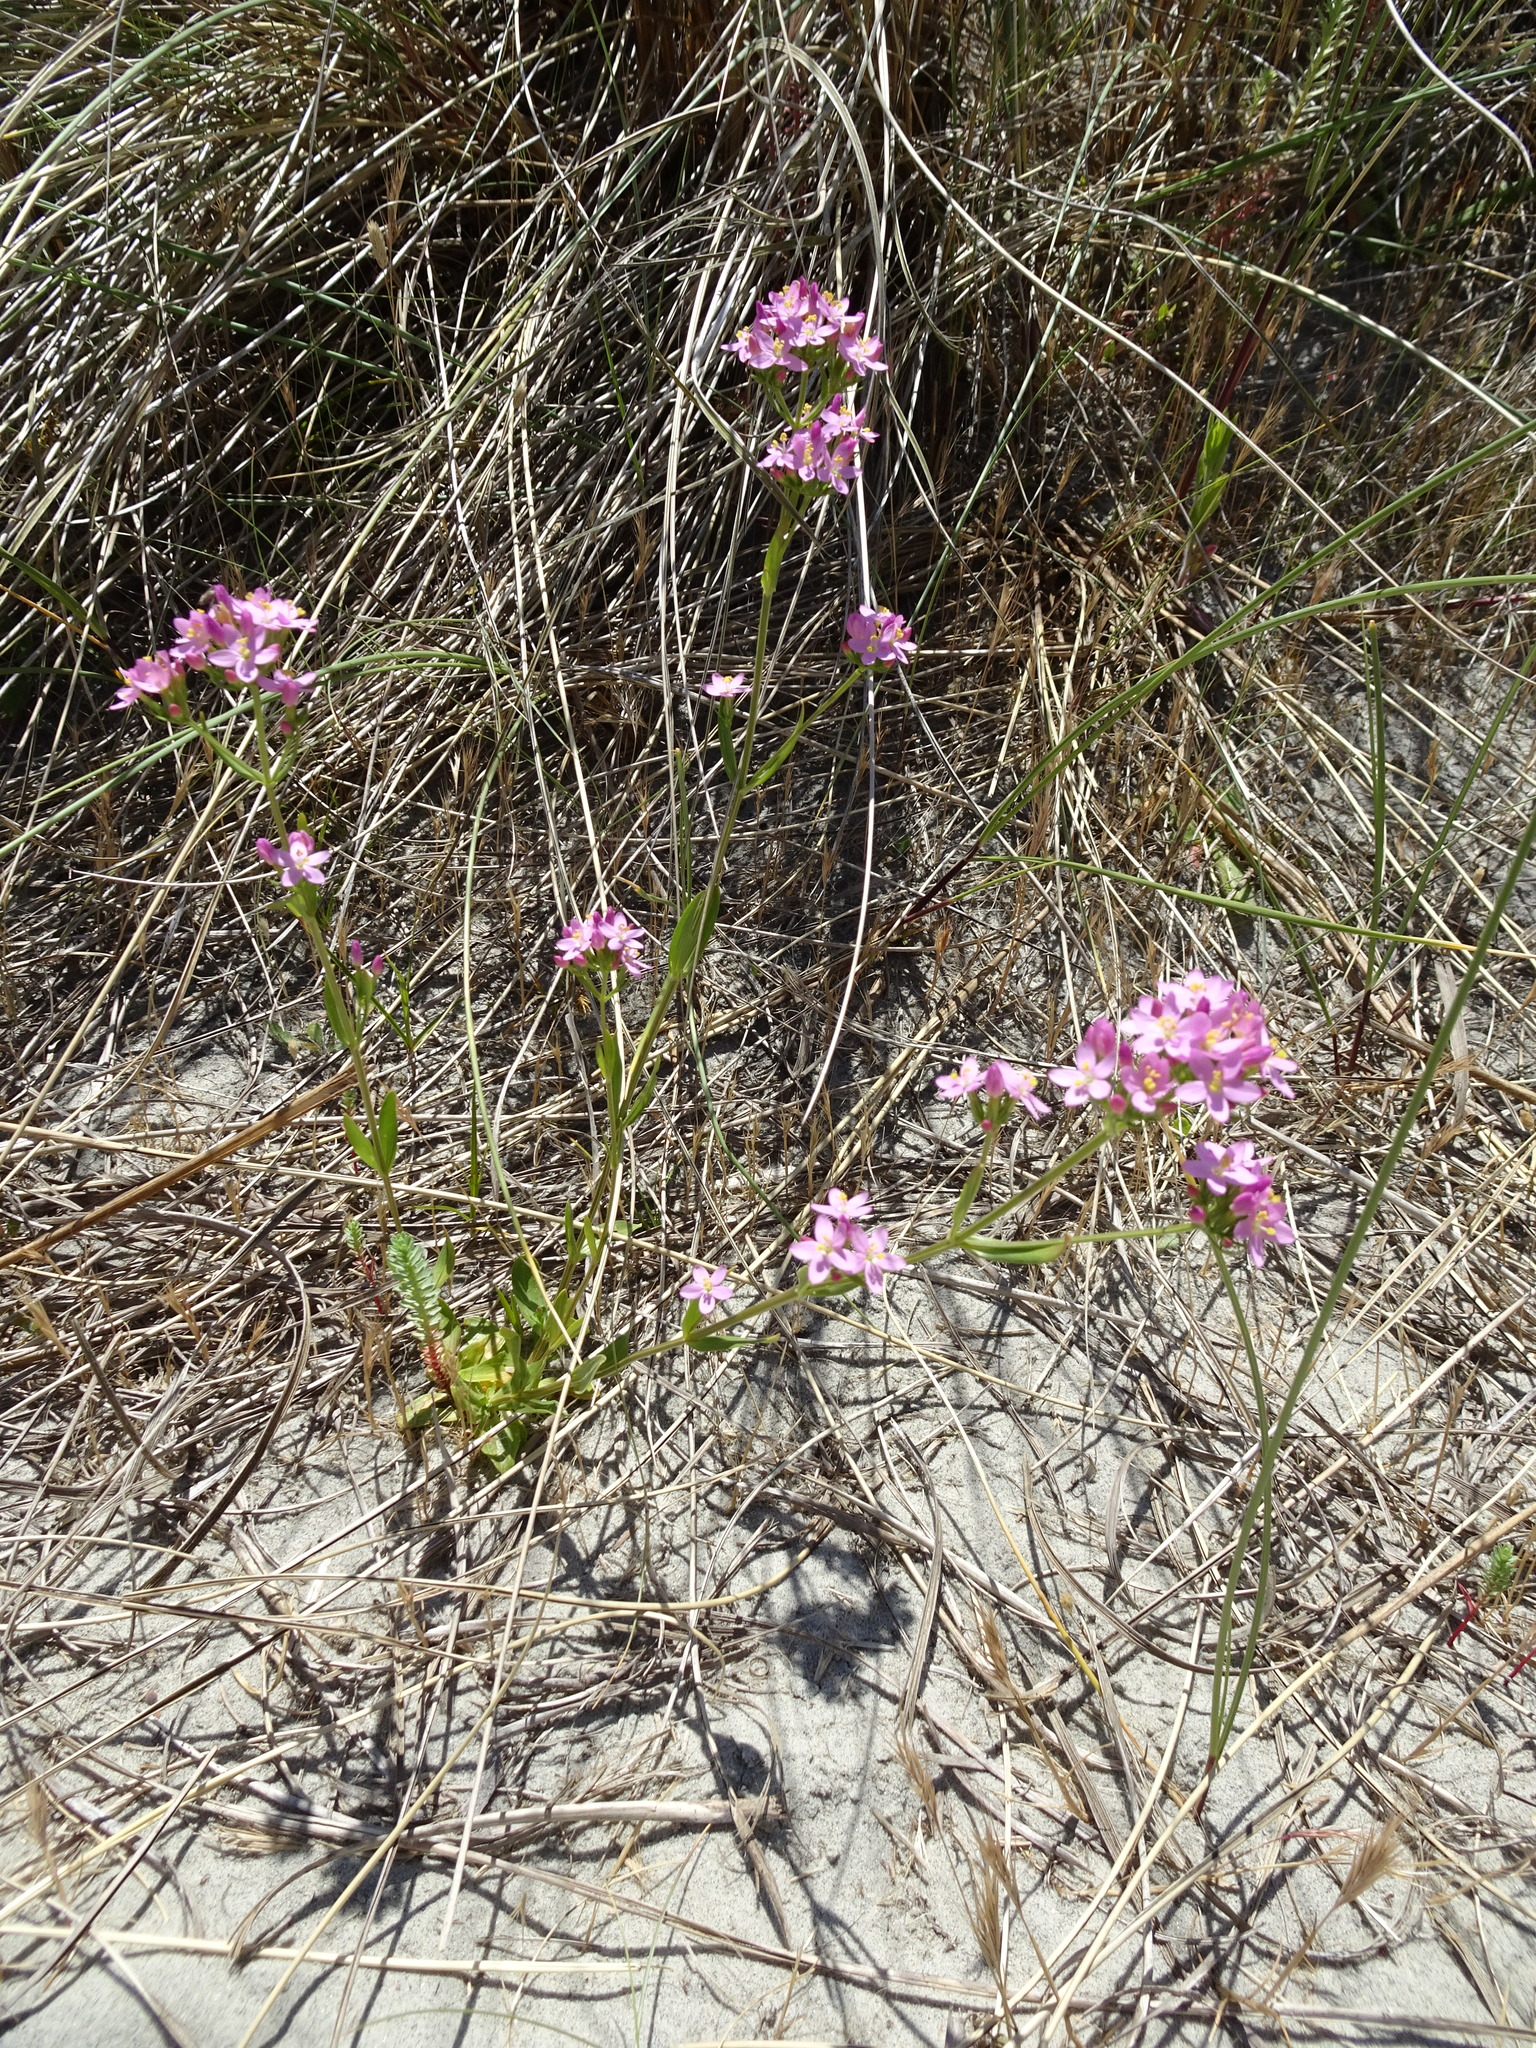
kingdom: Plantae
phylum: Tracheophyta
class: Magnoliopsida
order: Gentianales
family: Gentianaceae
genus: Centaurium
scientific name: Centaurium erythraea
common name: Common centaury
